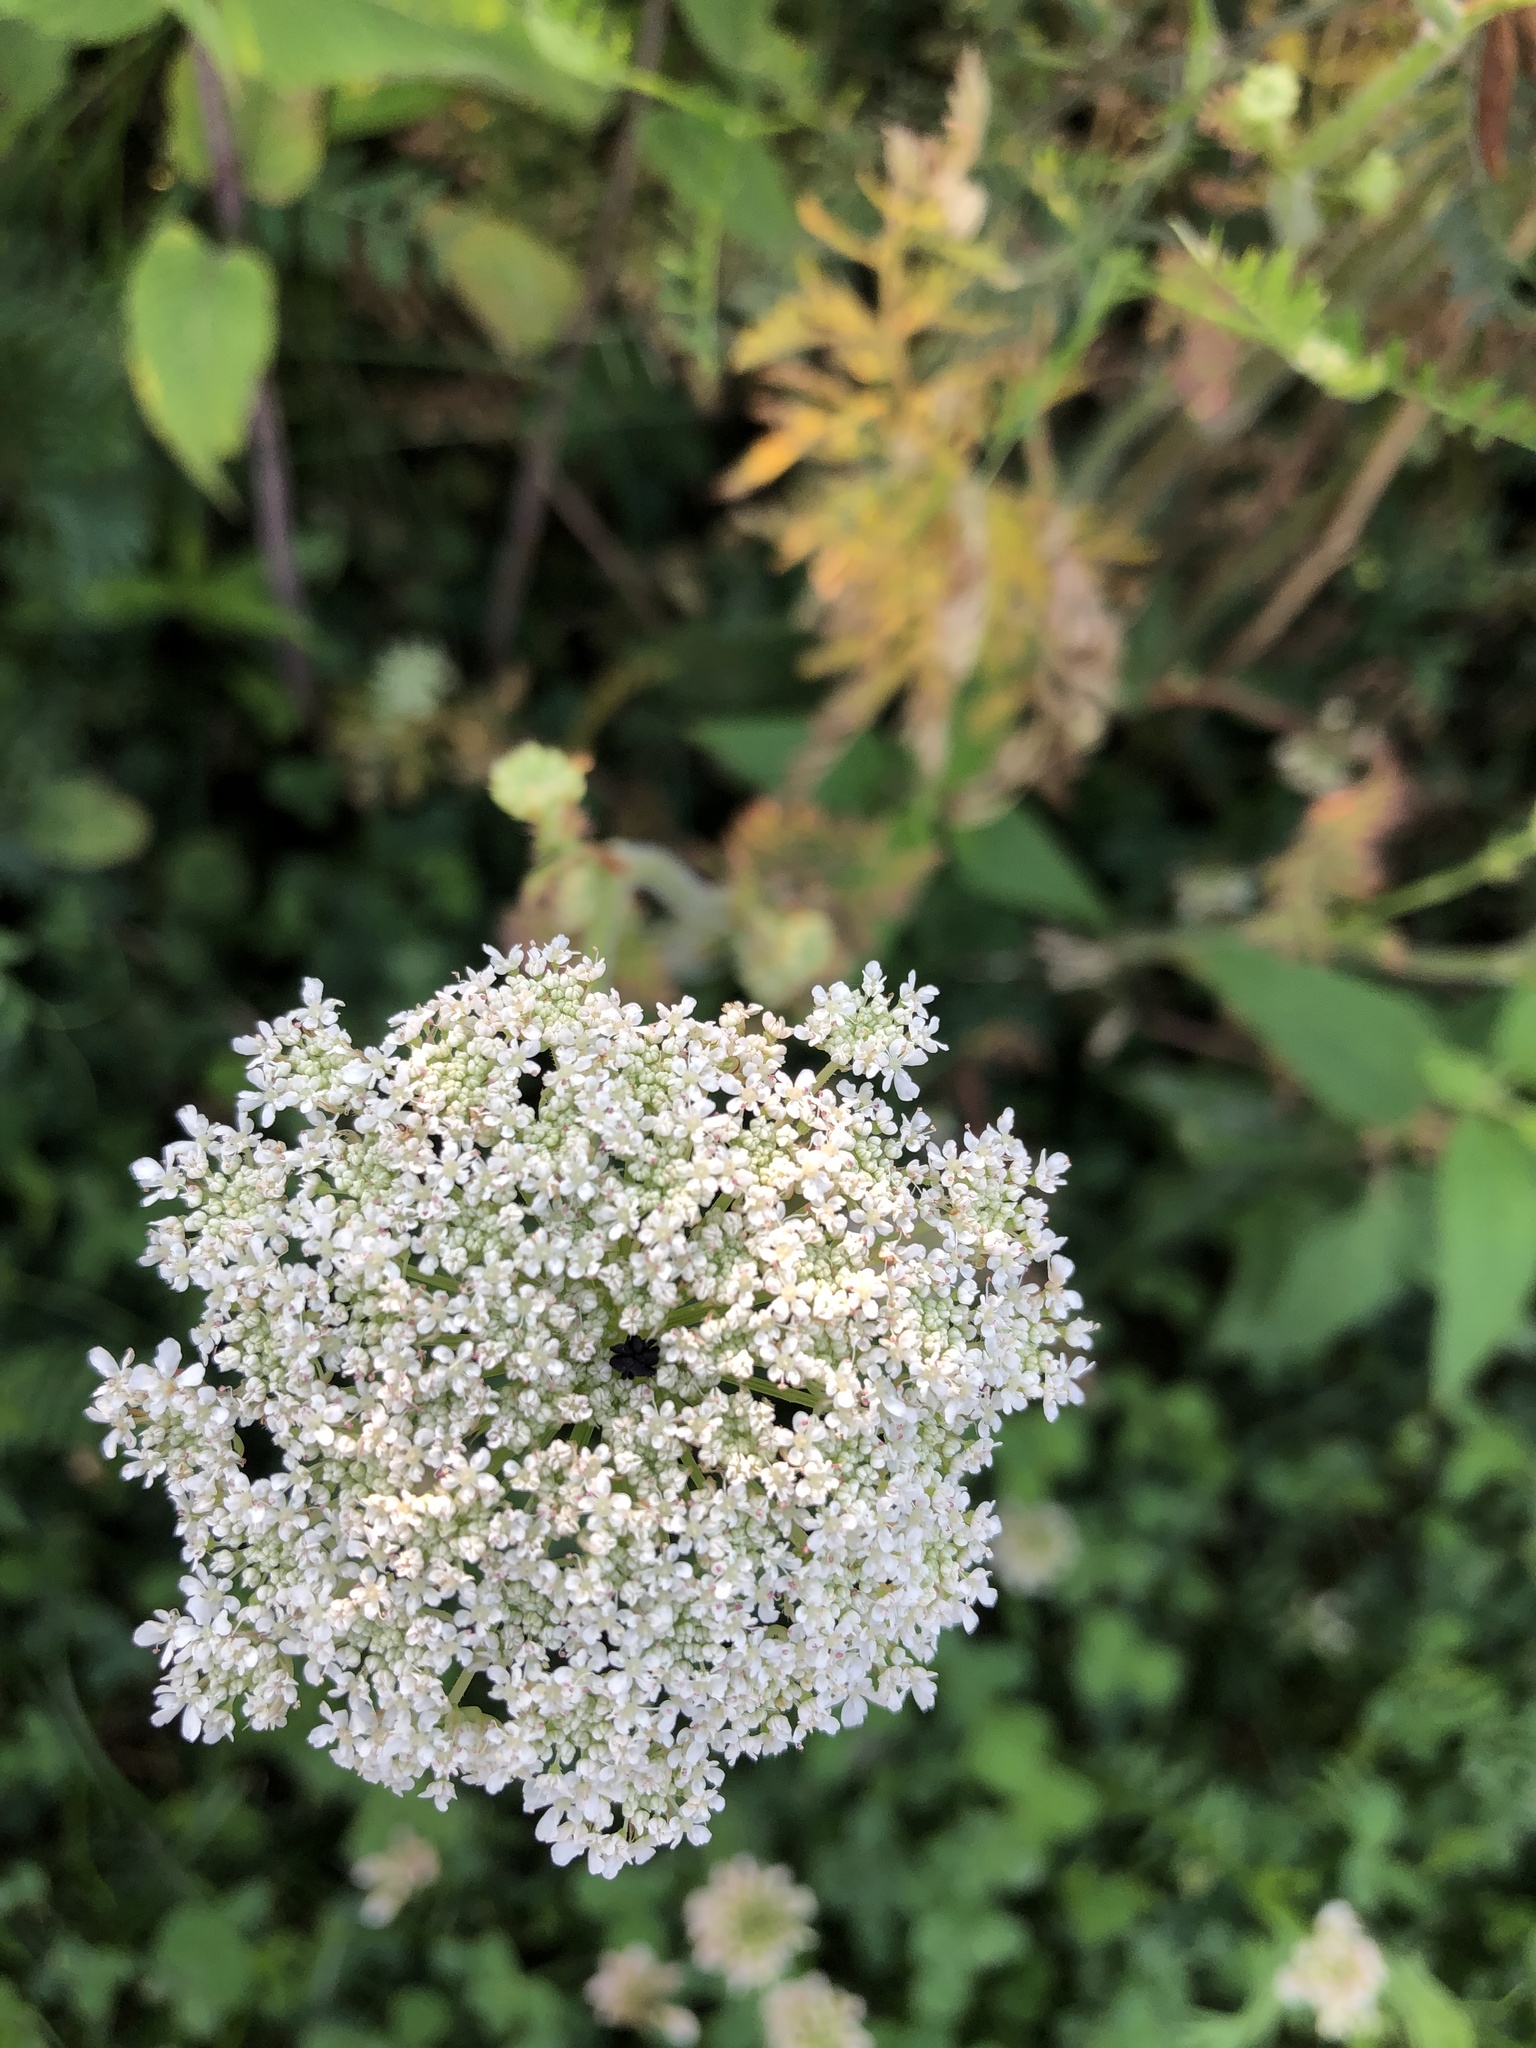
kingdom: Plantae
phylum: Tracheophyta
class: Magnoliopsida
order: Apiales
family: Apiaceae
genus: Daucus
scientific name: Daucus carota
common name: Wild carrot
